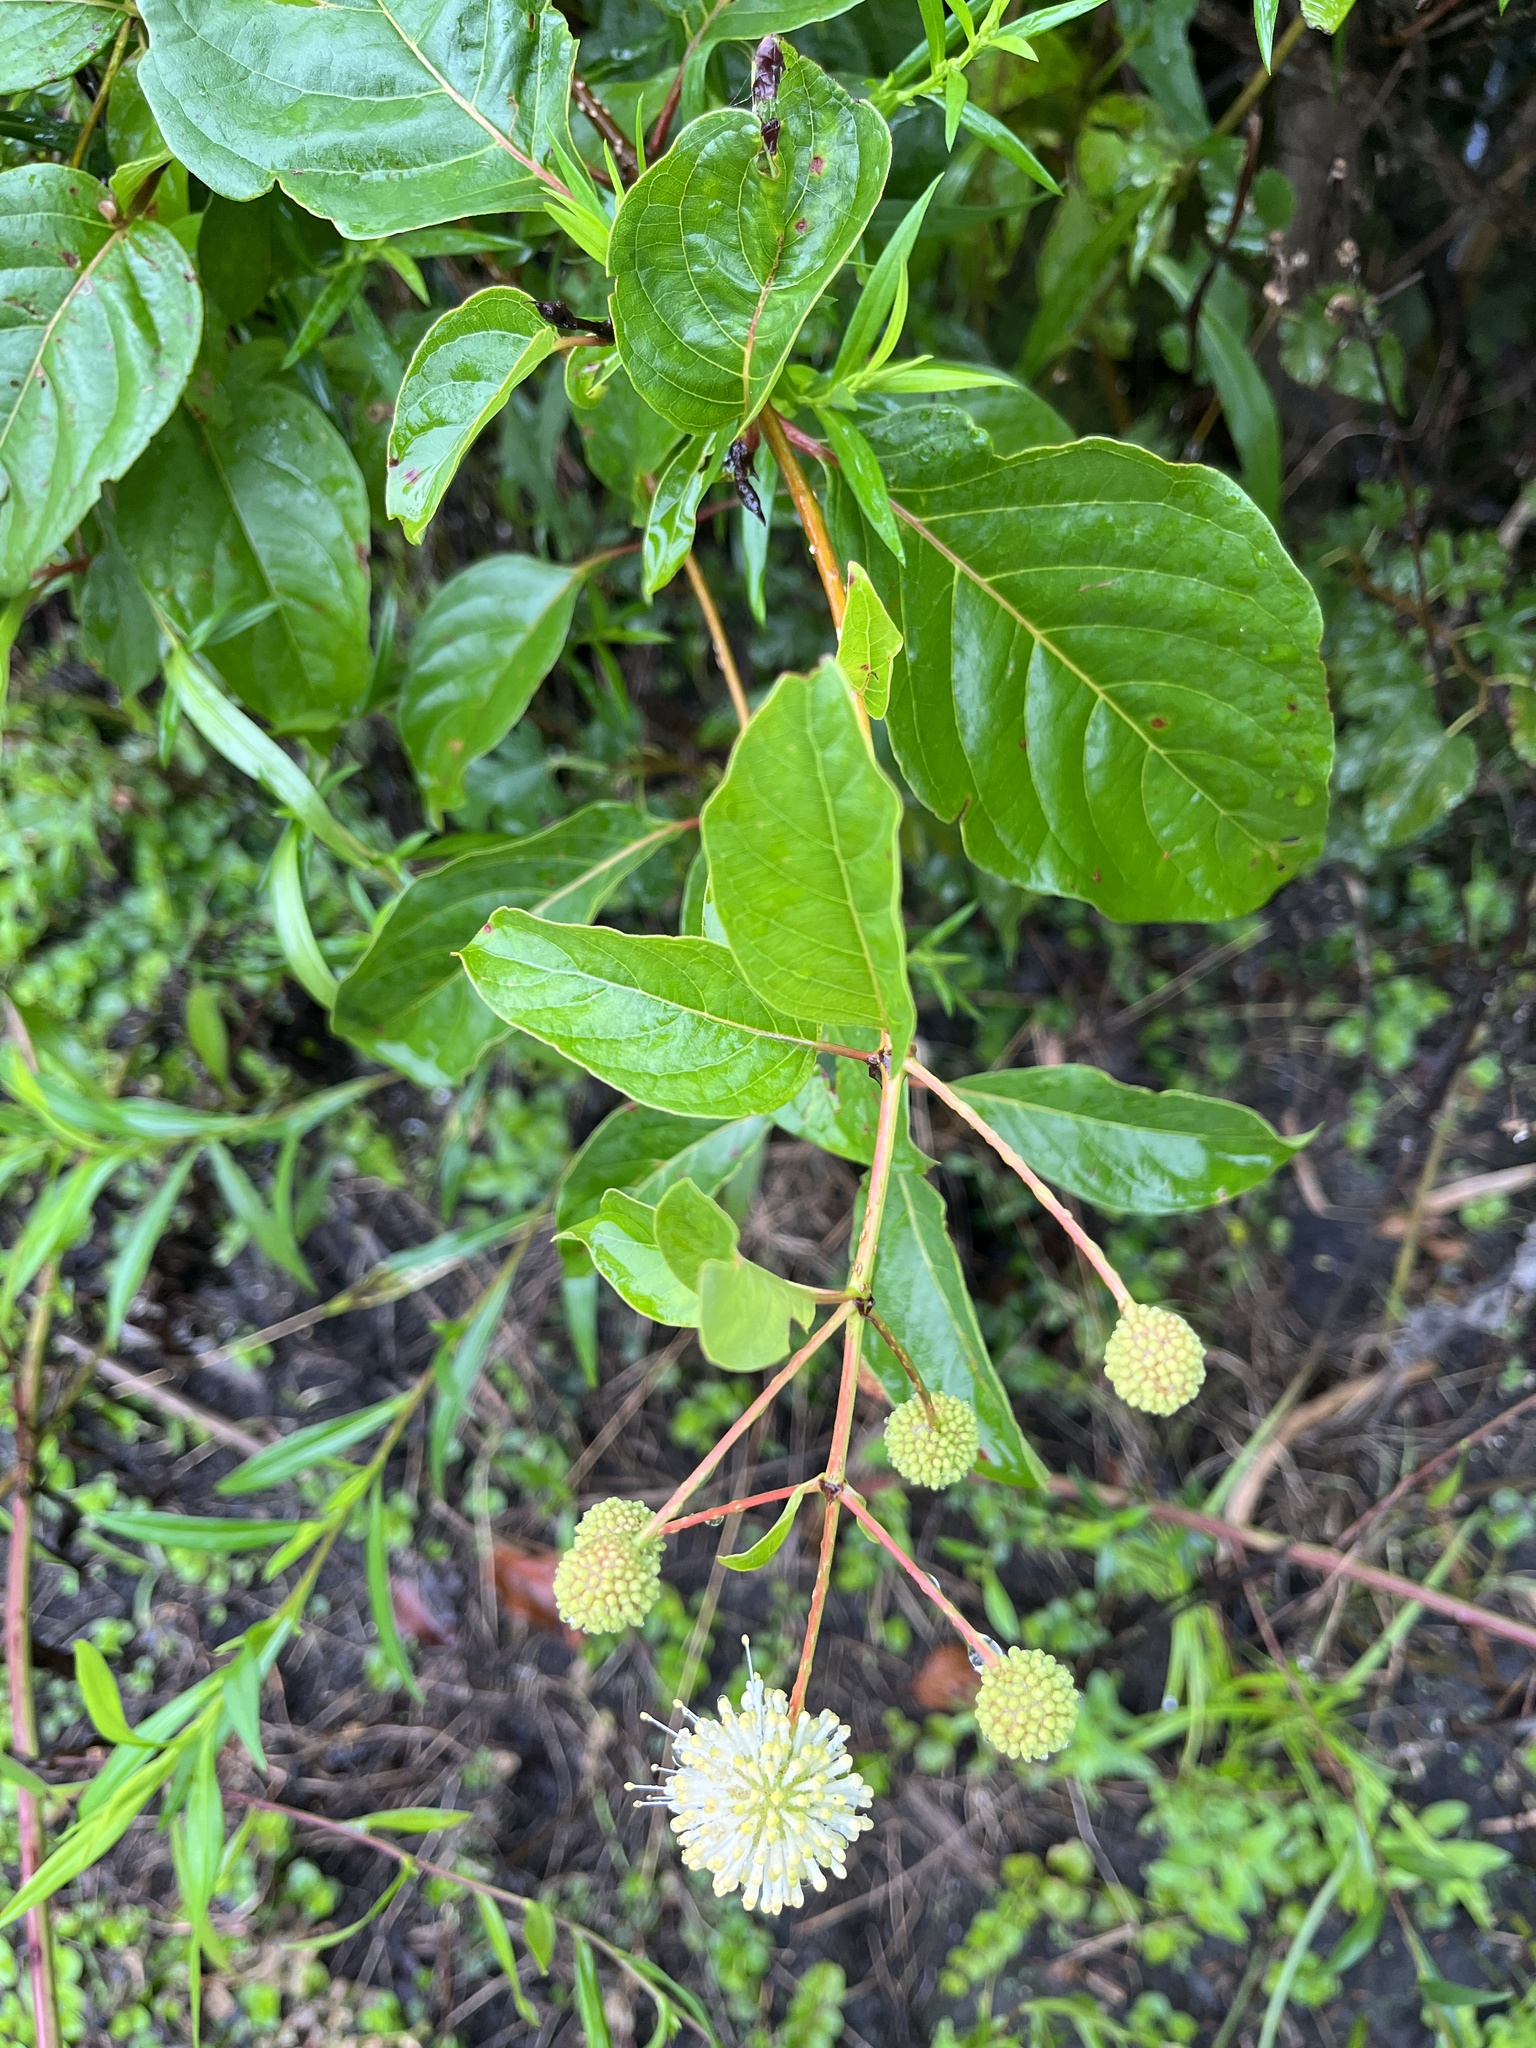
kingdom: Plantae
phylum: Tracheophyta
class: Magnoliopsida
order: Gentianales
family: Rubiaceae
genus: Cephalanthus
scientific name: Cephalanthus occidentalis
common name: Button-willow
